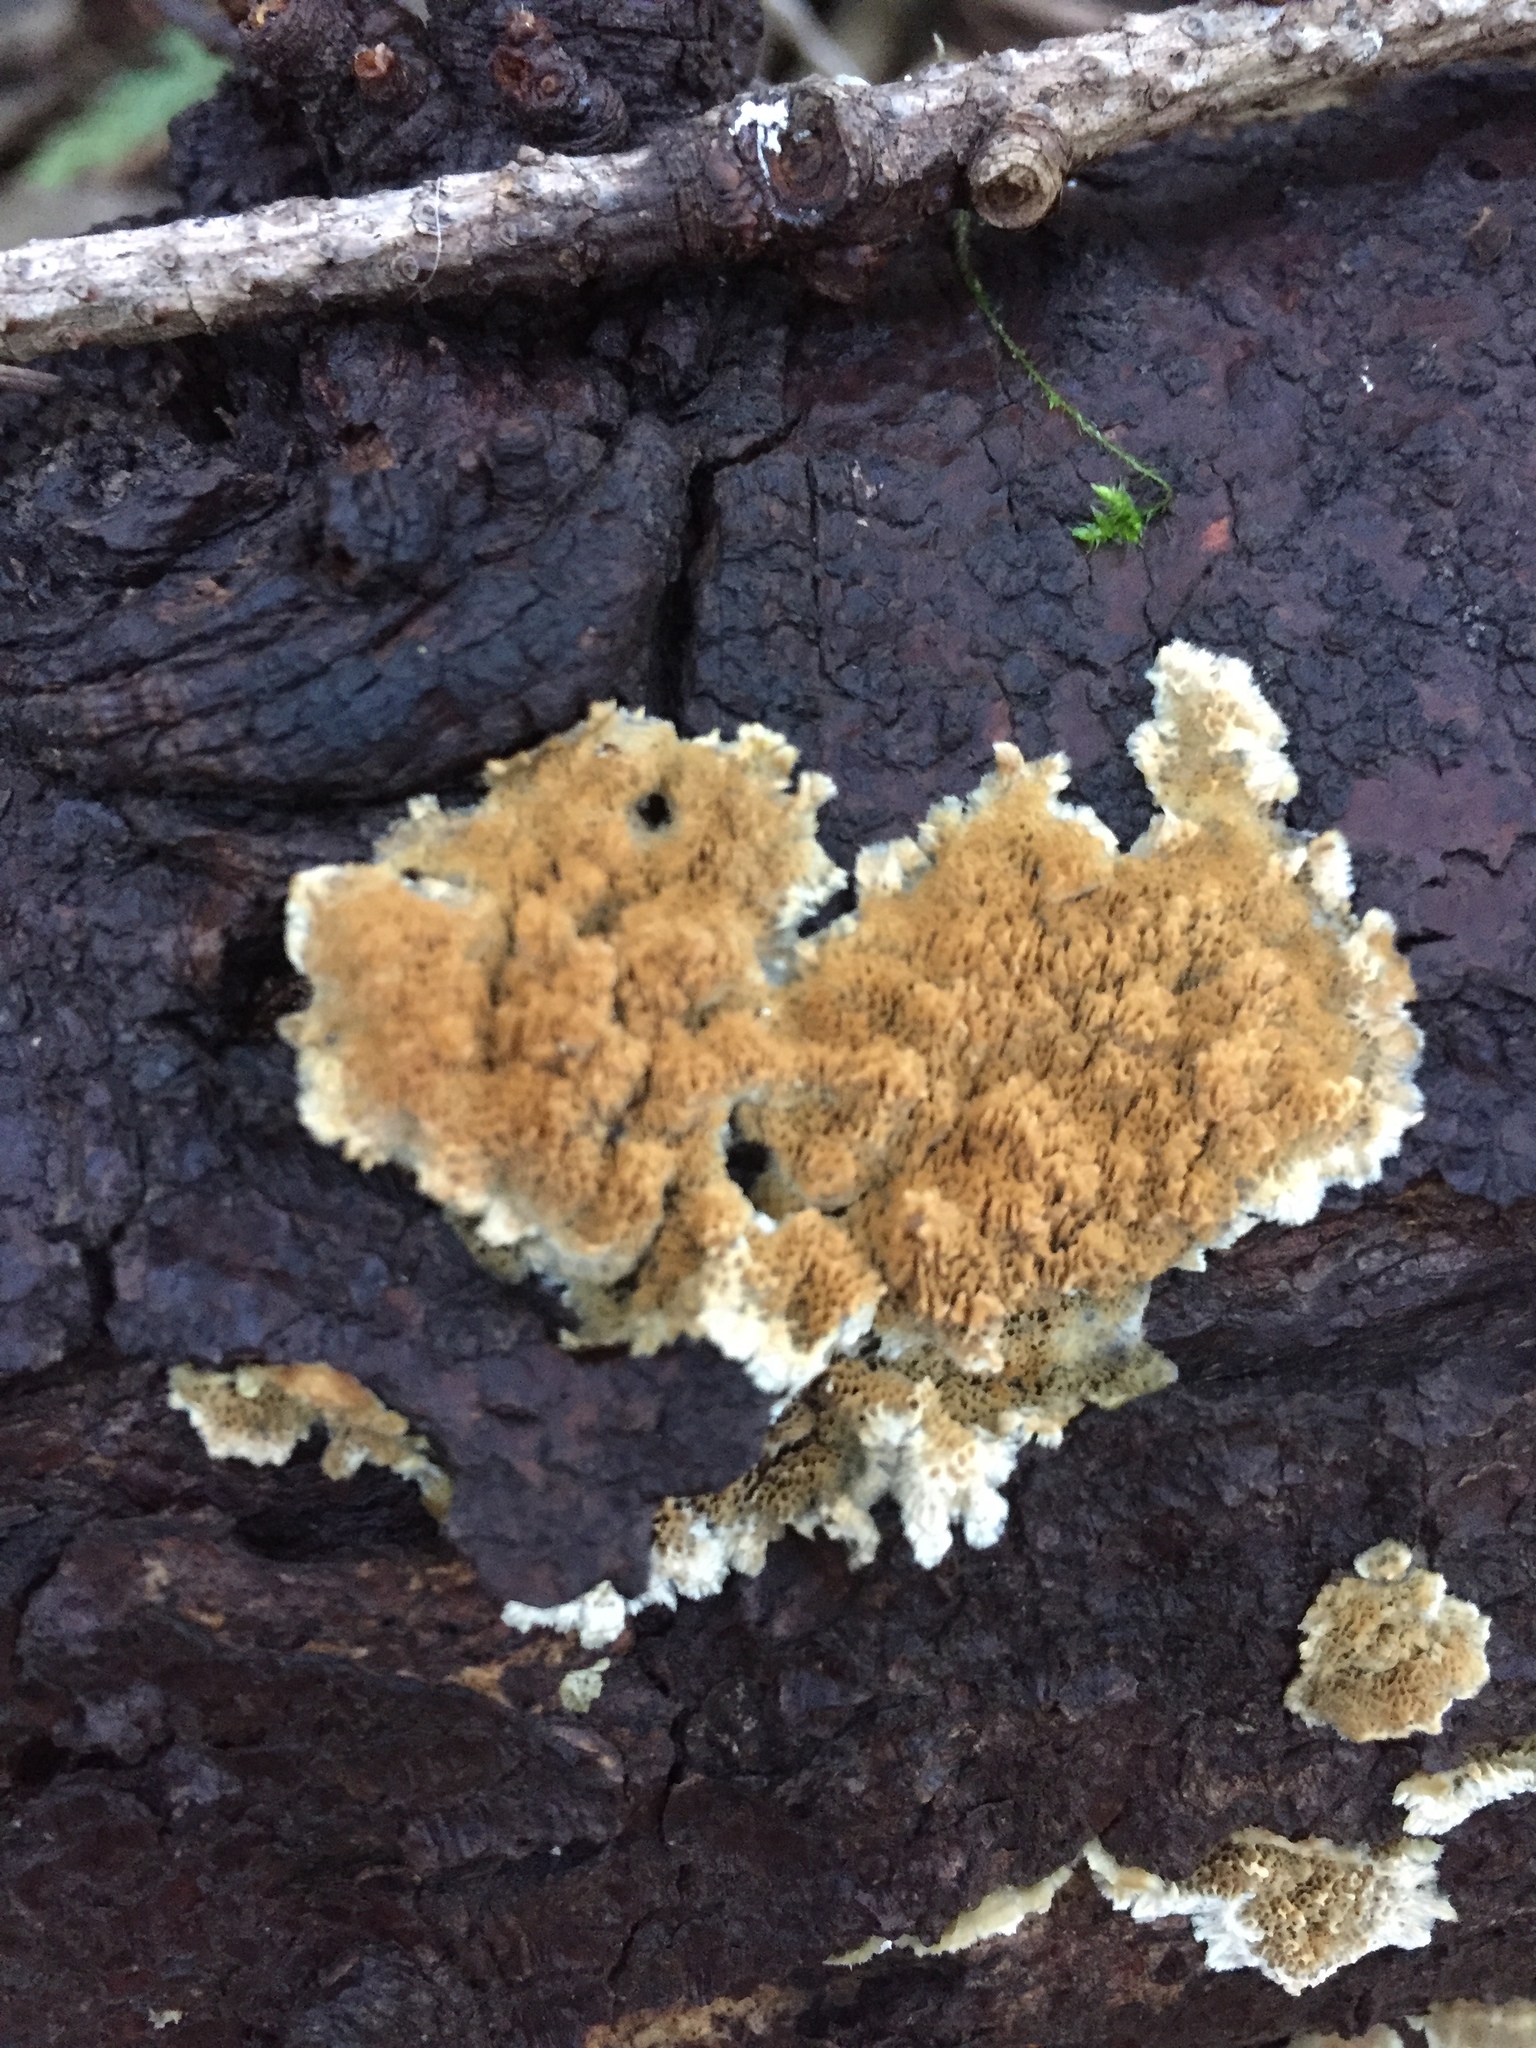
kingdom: Fungi
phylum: Basidiomycota
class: Agaricomycetes
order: Polyporales
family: Irpicaceae
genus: Irpex
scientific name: Irpex lacteus
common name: Milk-white toothed polypore
